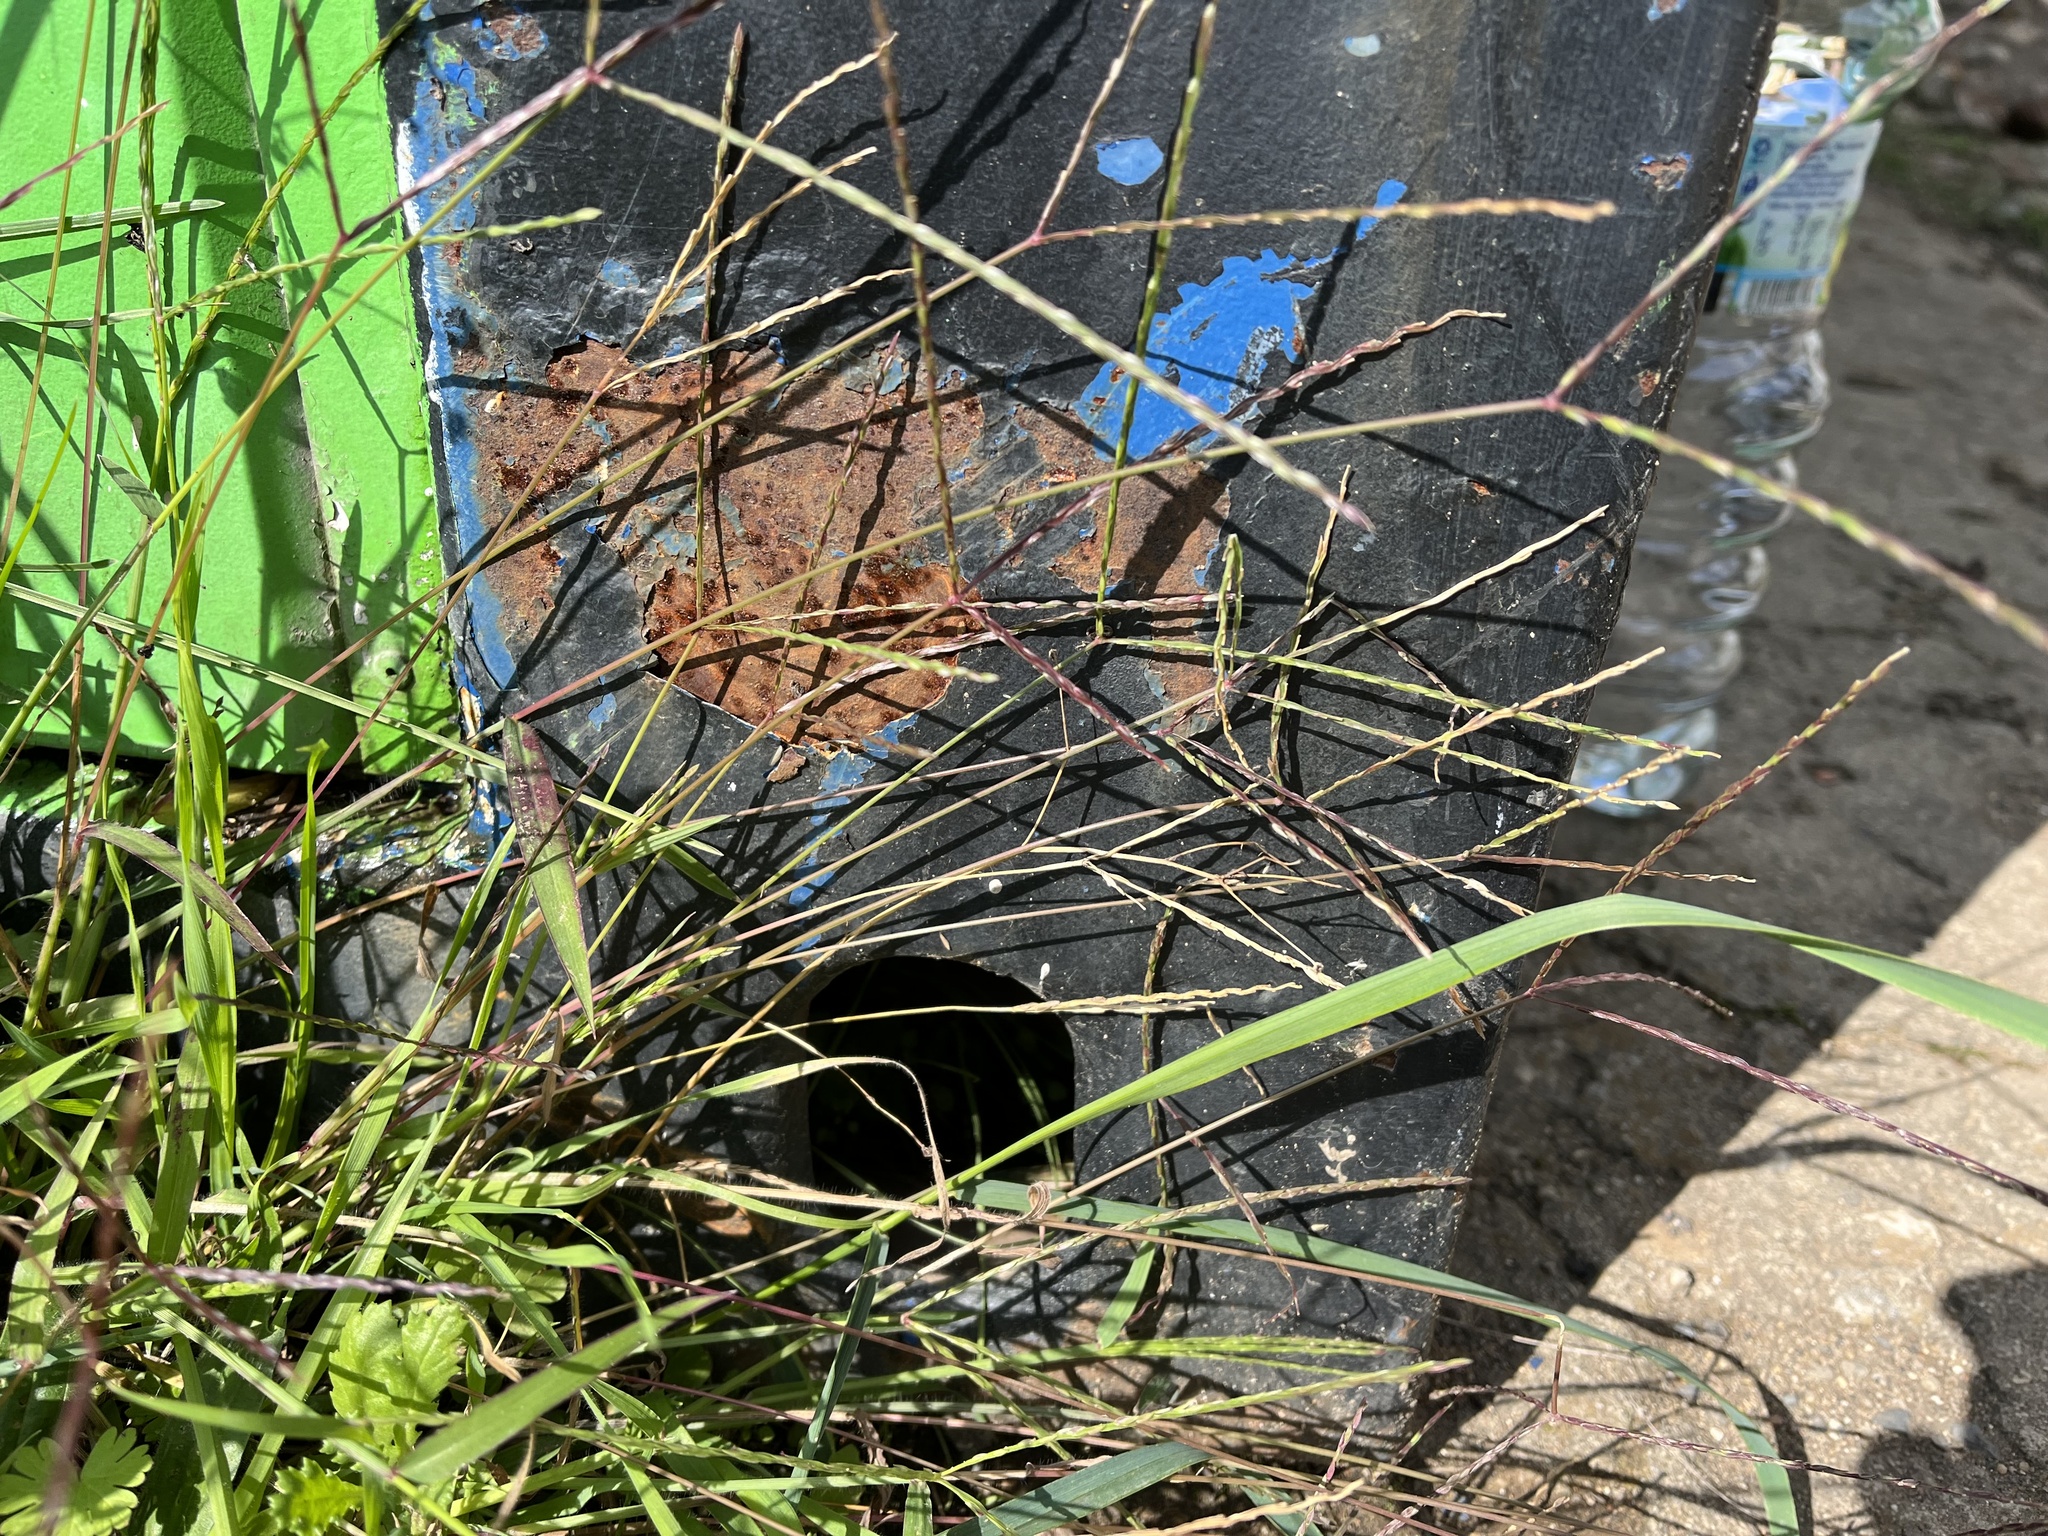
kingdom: Plantae
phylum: Tracheophyta
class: Liliopsida
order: Poales
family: Poaceae
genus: Digitaria
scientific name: Digitaria sanguinalis
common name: Hairy crabgrass
